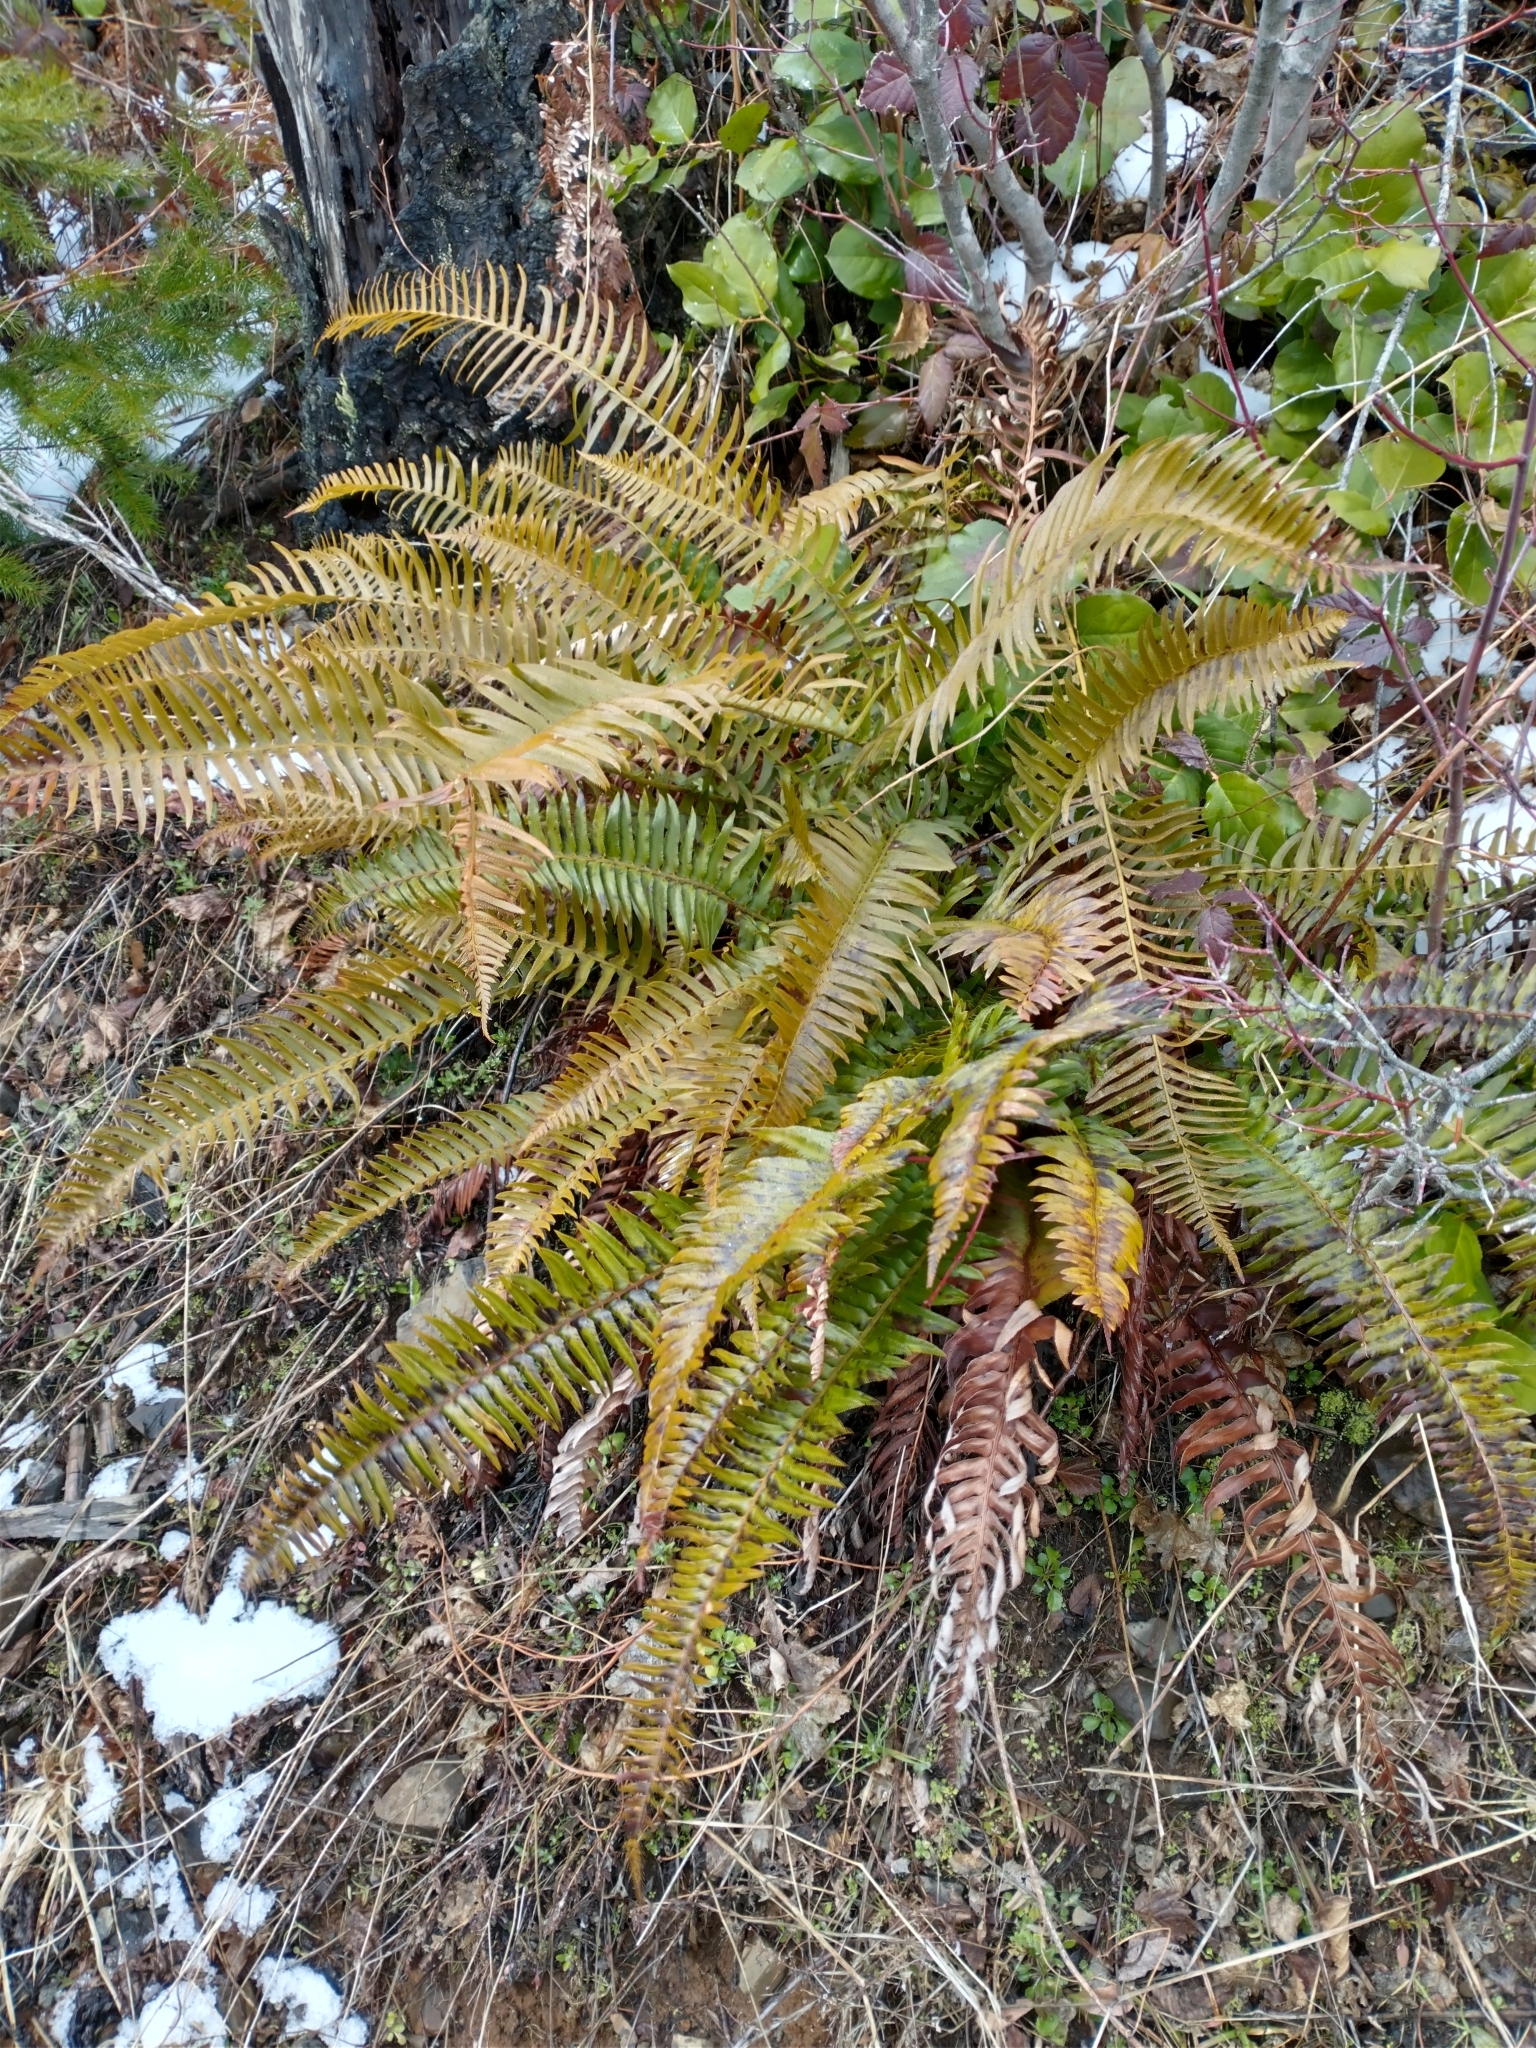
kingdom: Plantae
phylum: Tracheophyta
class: Polypodiopsida
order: Polypodiales
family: Dryopteridaceae
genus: Polystichum
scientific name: Polystichum munitum
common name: Western sword-fern
